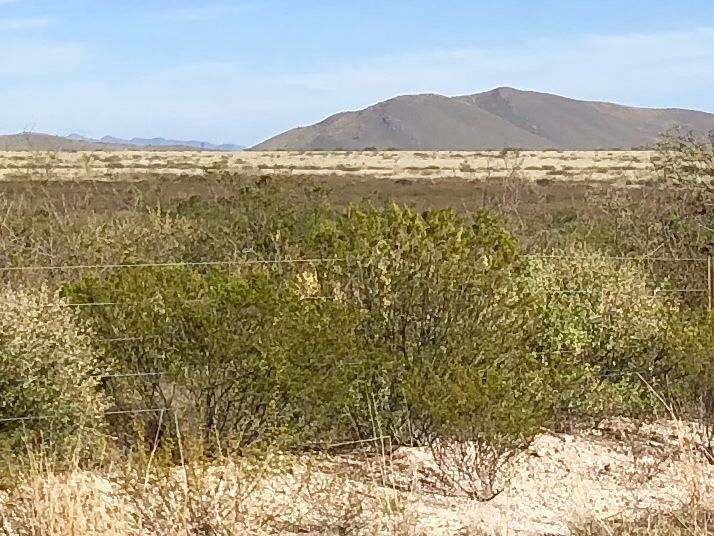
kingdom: Plantae
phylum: Tracheophyta
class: Magnoliopsida
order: Zygophyllales
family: Zygophyllaceae
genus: Larrea
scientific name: Larrea tridentata
